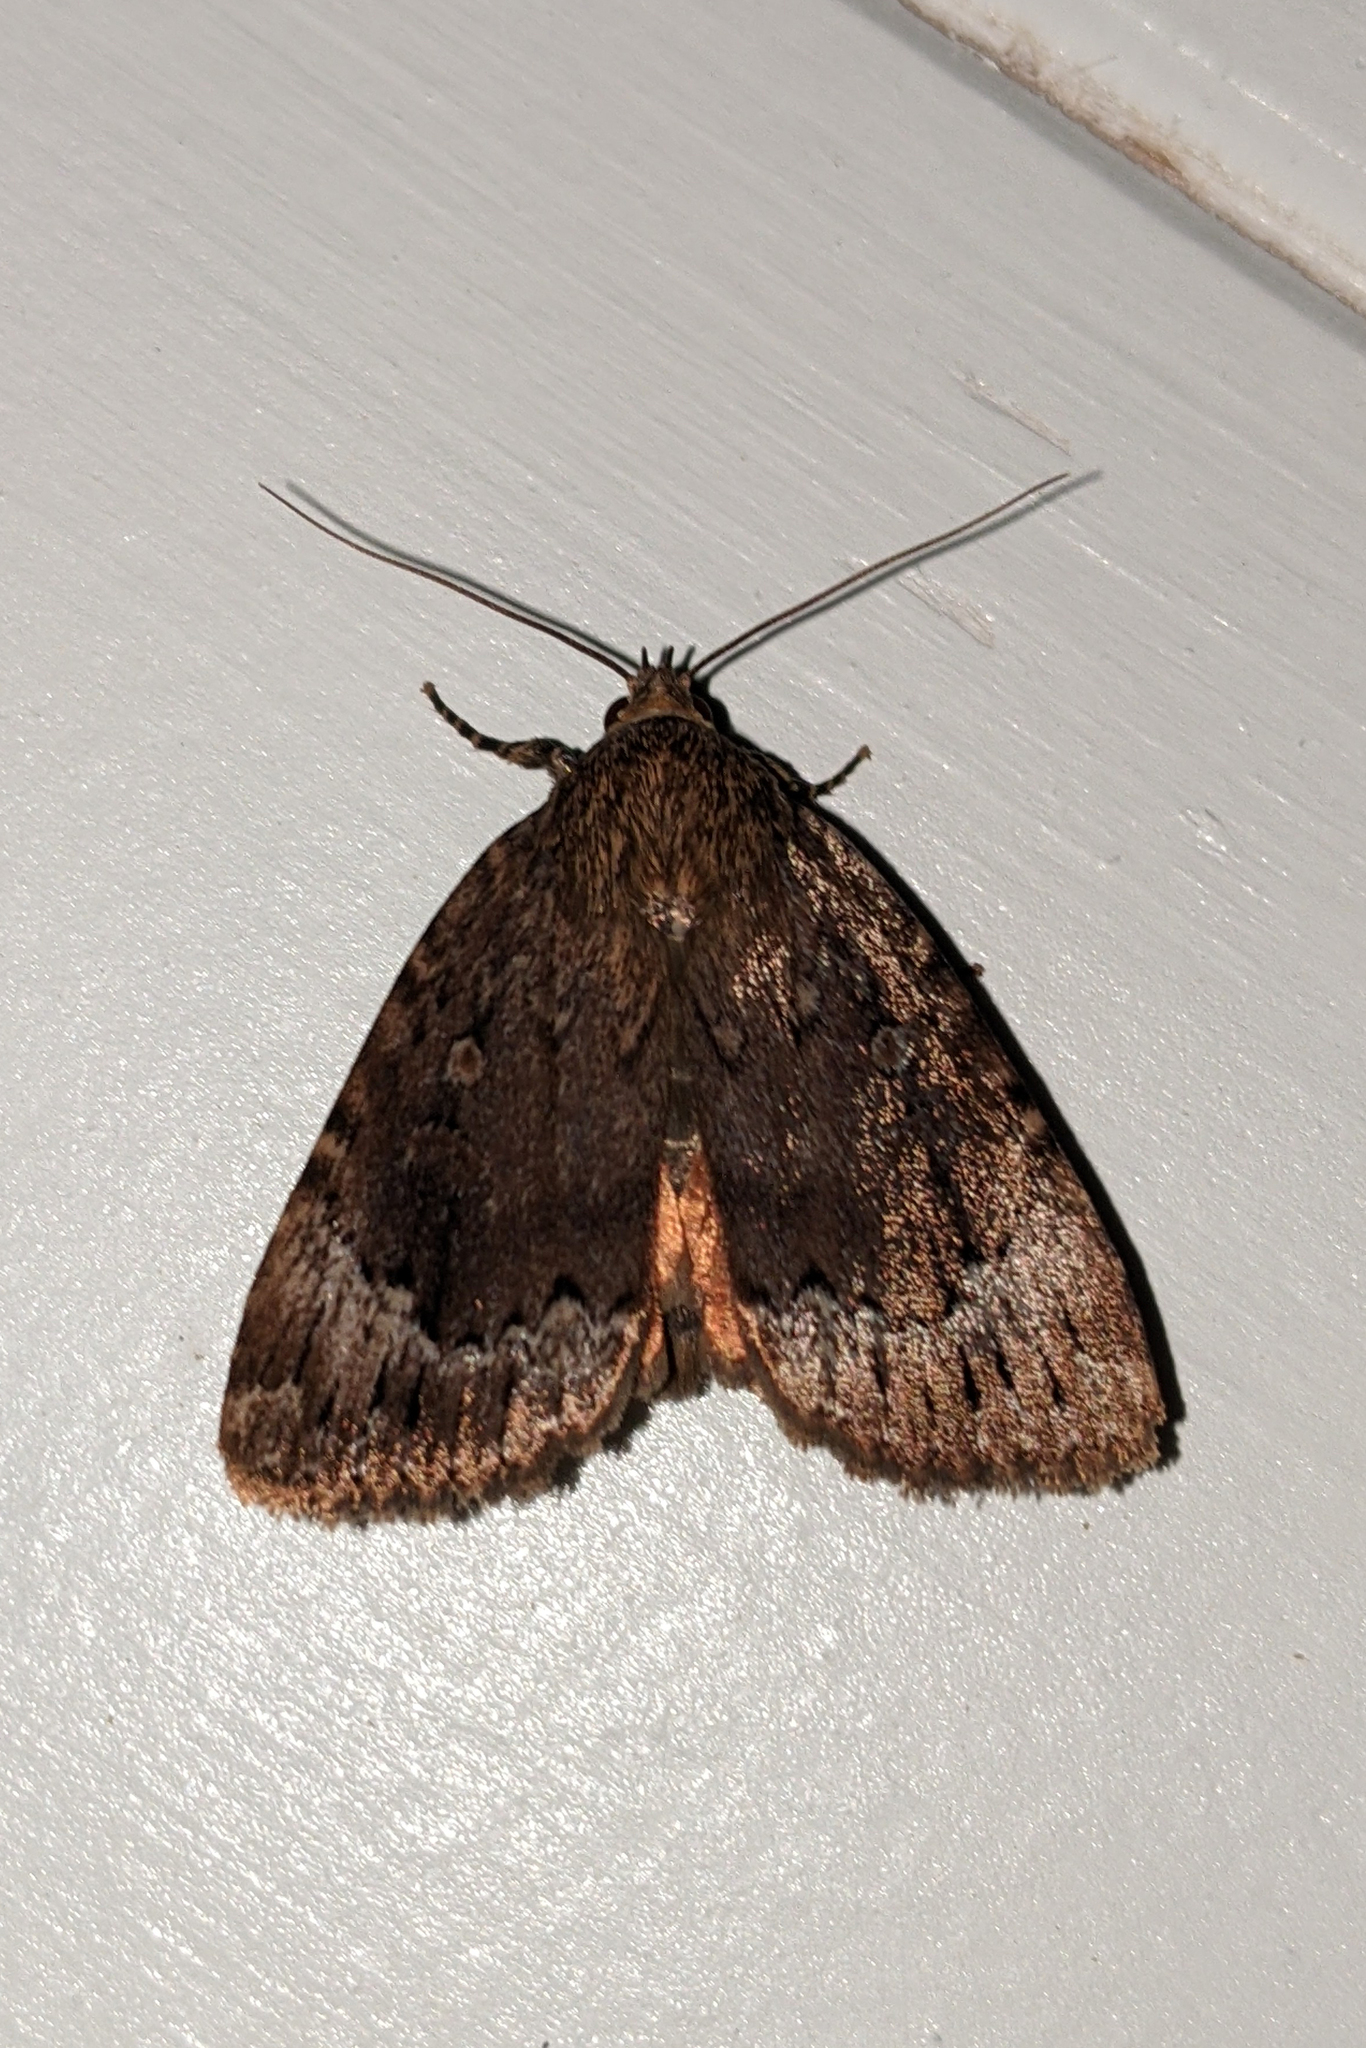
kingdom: Animalia
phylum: Arthropoda
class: Insecta
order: Lepidoptera
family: Noctuidae
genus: Amphipyra
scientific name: Amphipyra pyramidoides
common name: American copper underwing
